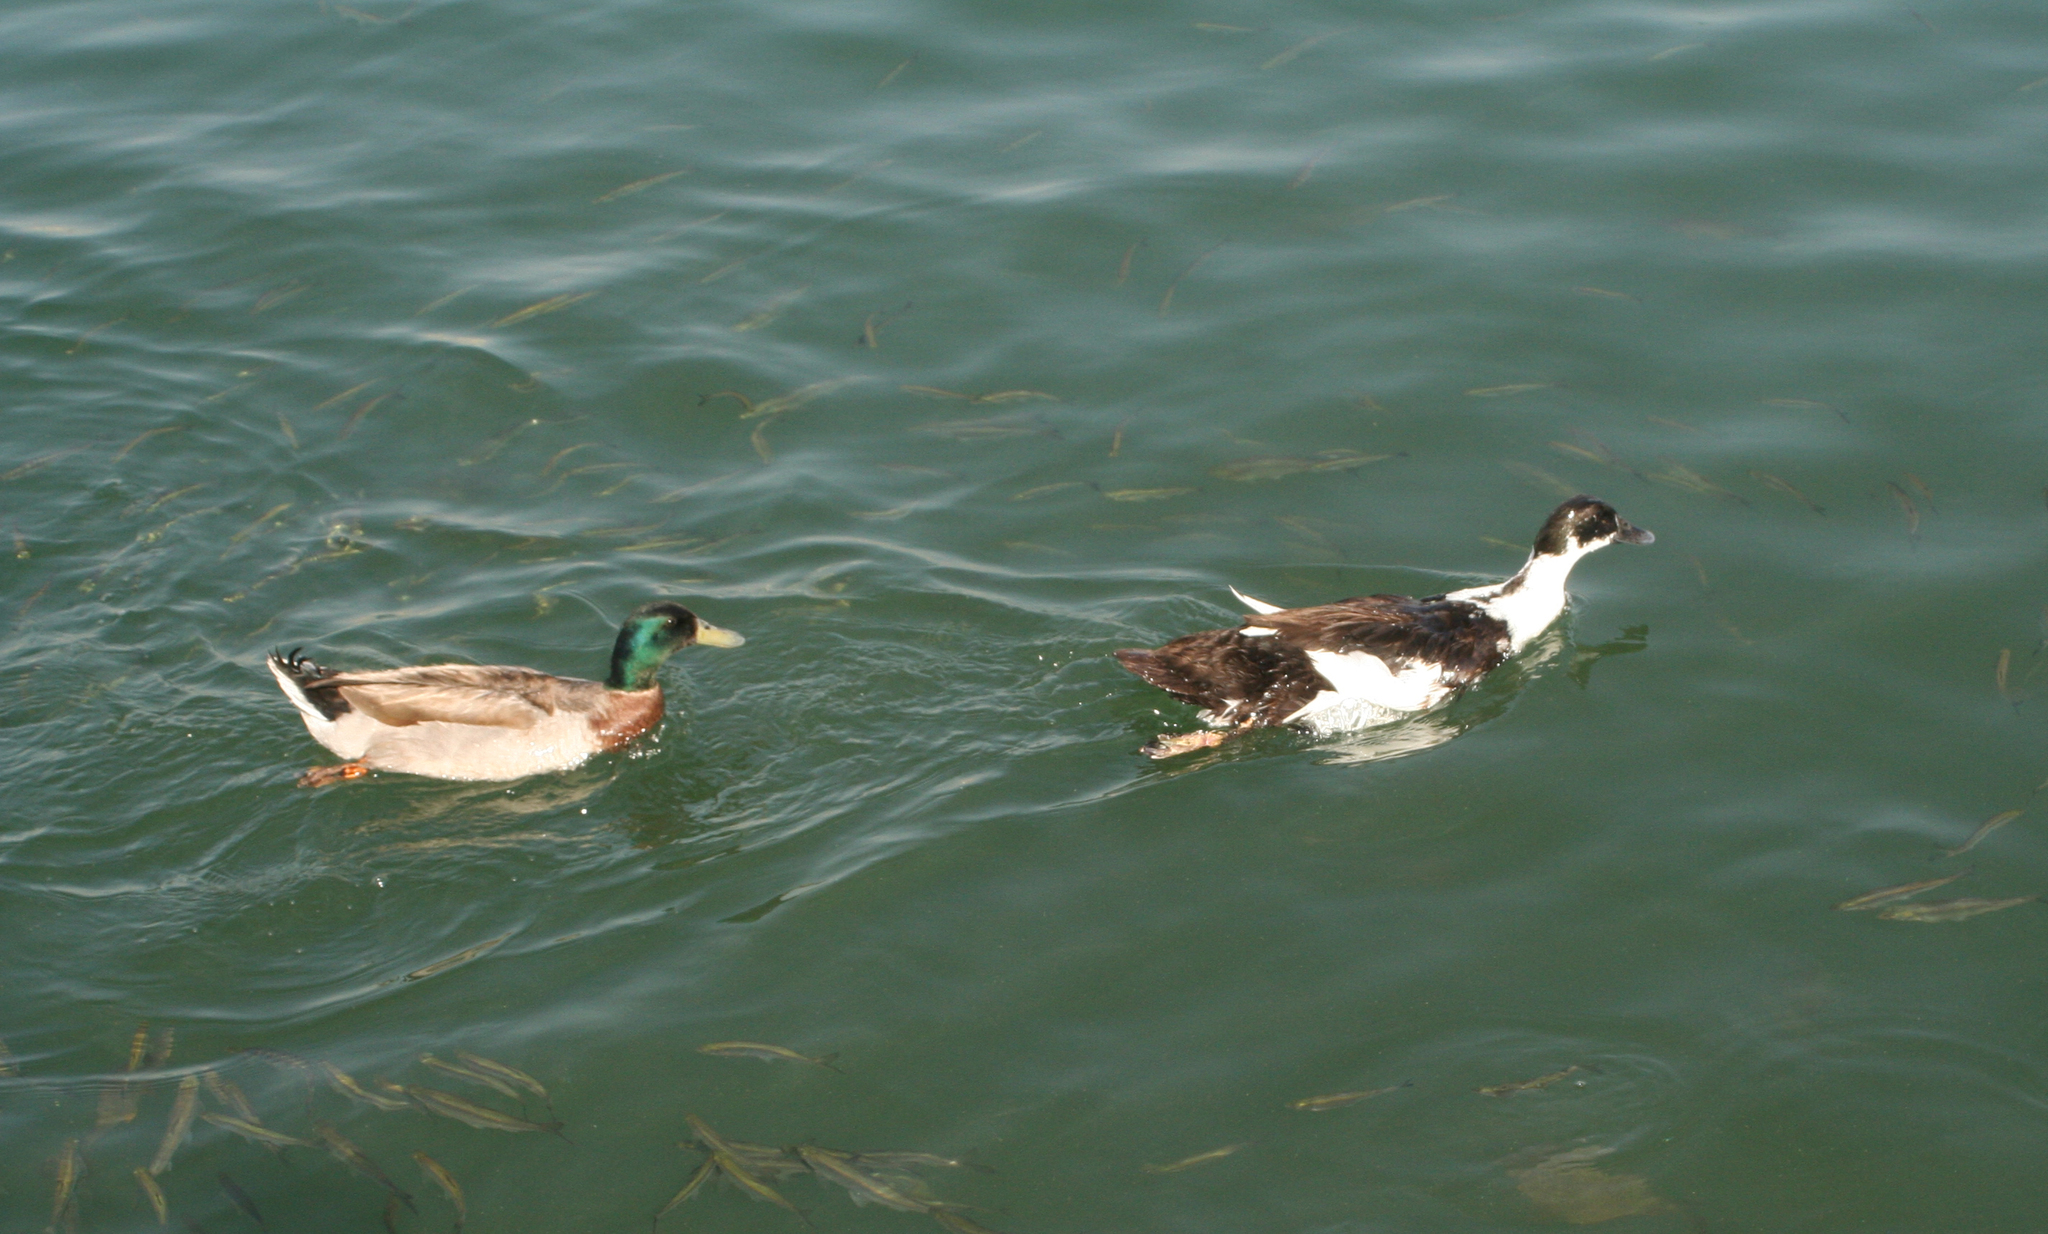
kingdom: Animalia
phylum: Chordata
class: Aves
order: Anseriformes
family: Anatidae
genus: Anas
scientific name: Anas platyrhynchos
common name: Mallard
